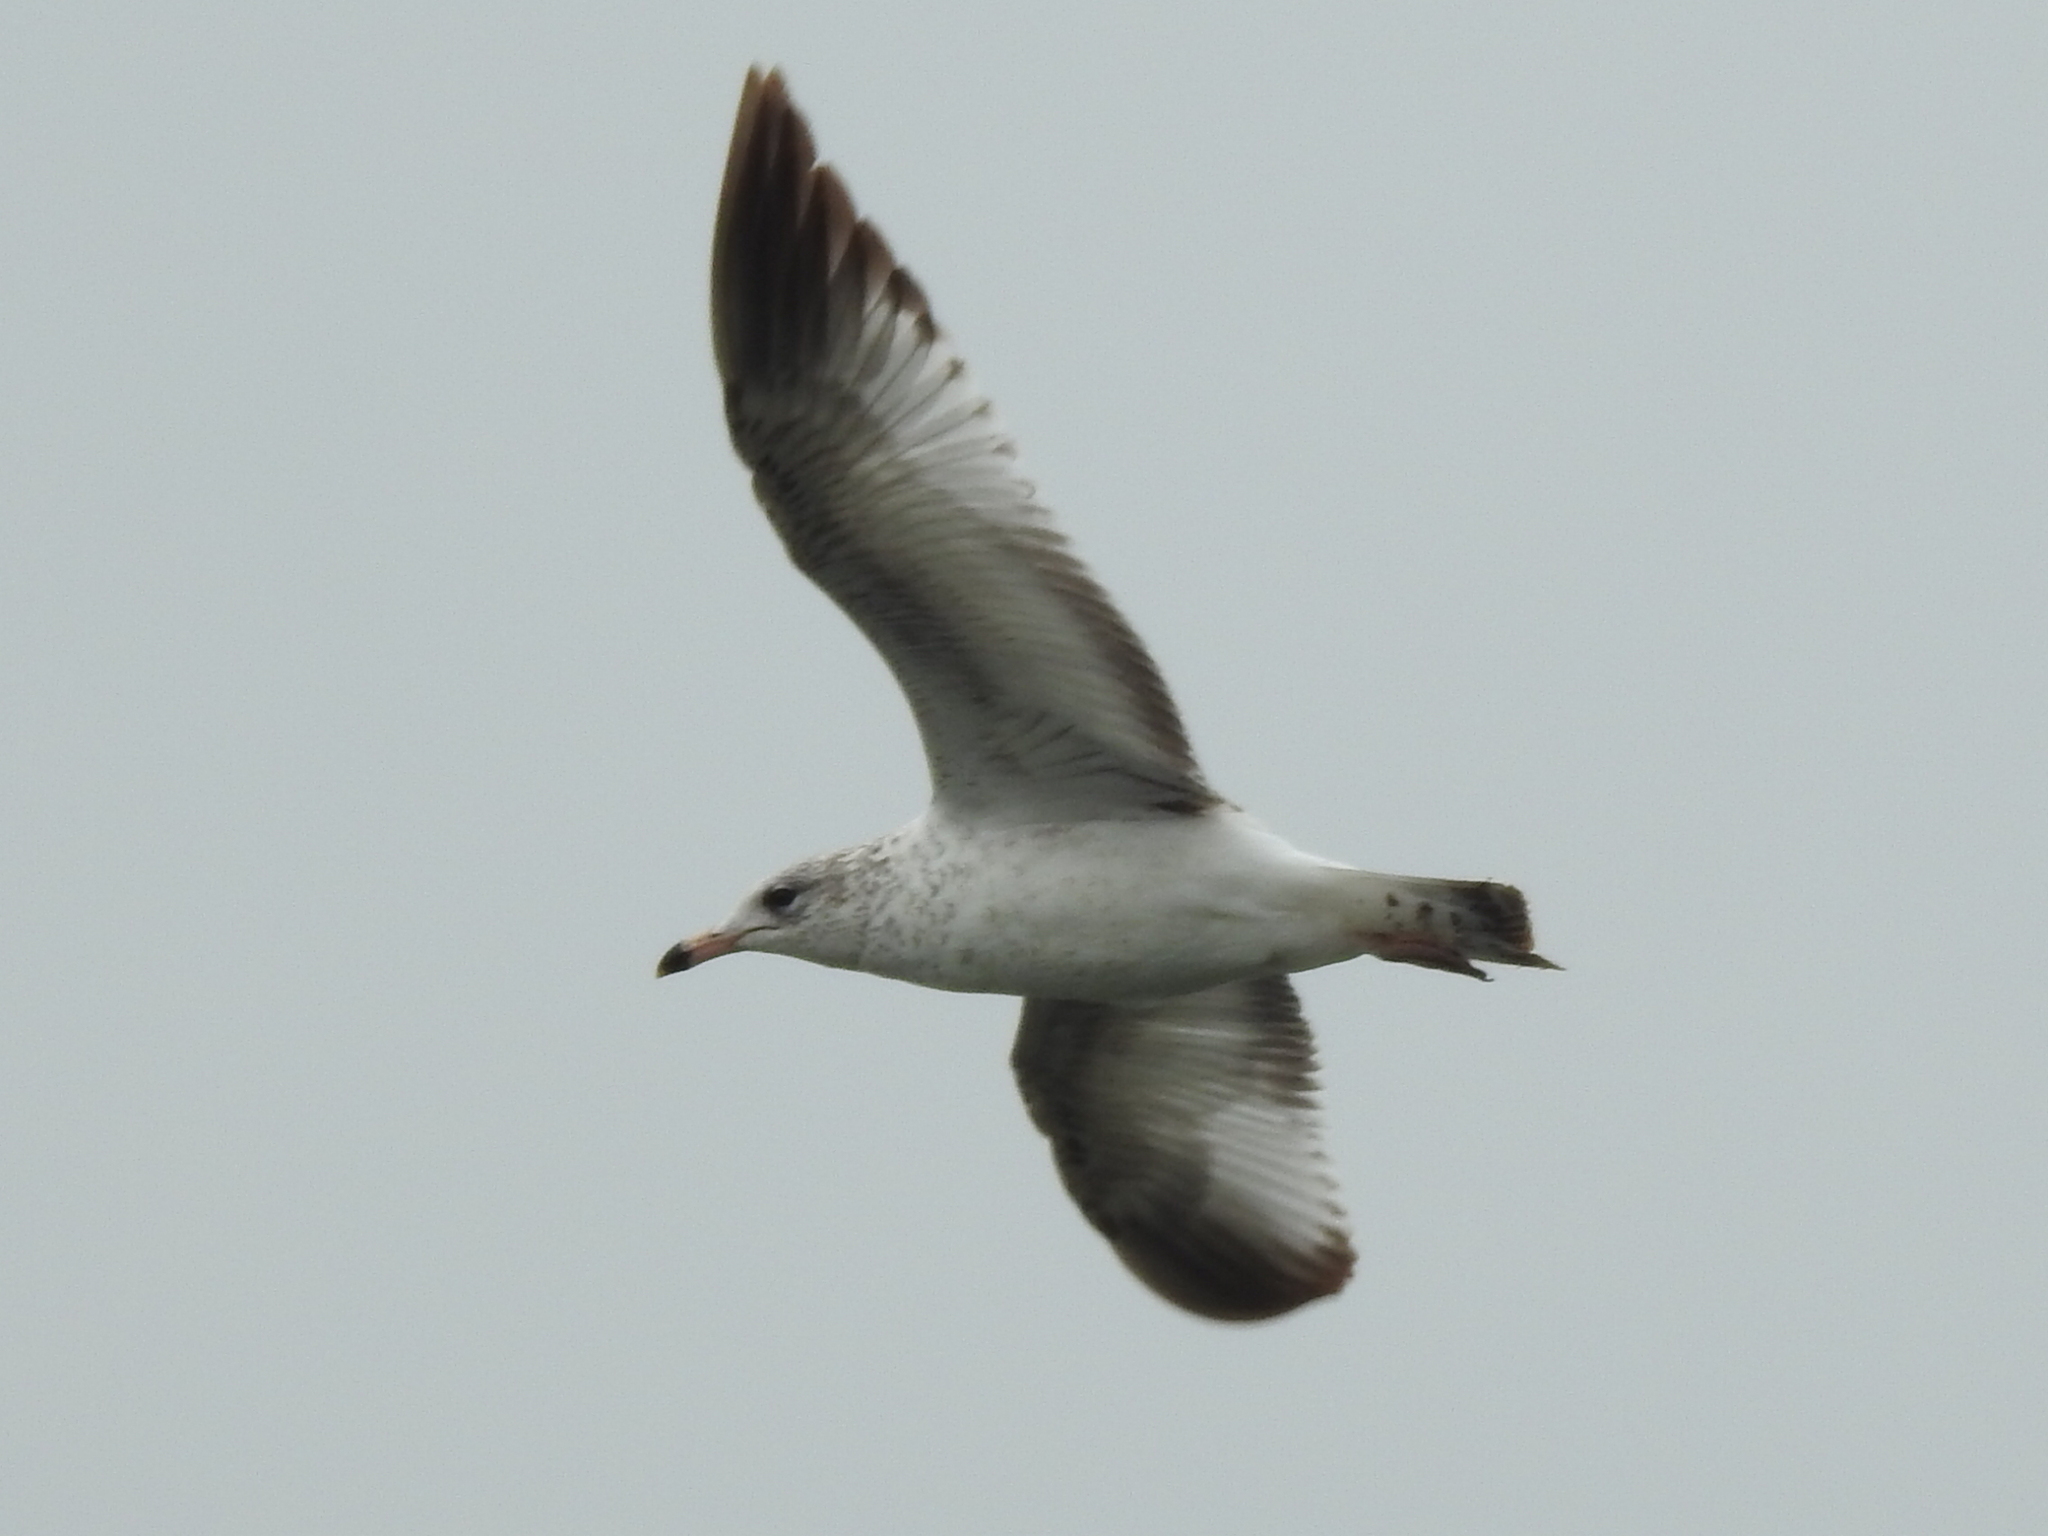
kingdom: Animalia
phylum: Chordata
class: Aves
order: Charadriiformes
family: Laridae
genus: Larus
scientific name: Larus delawarensis
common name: Ring-billed gull
